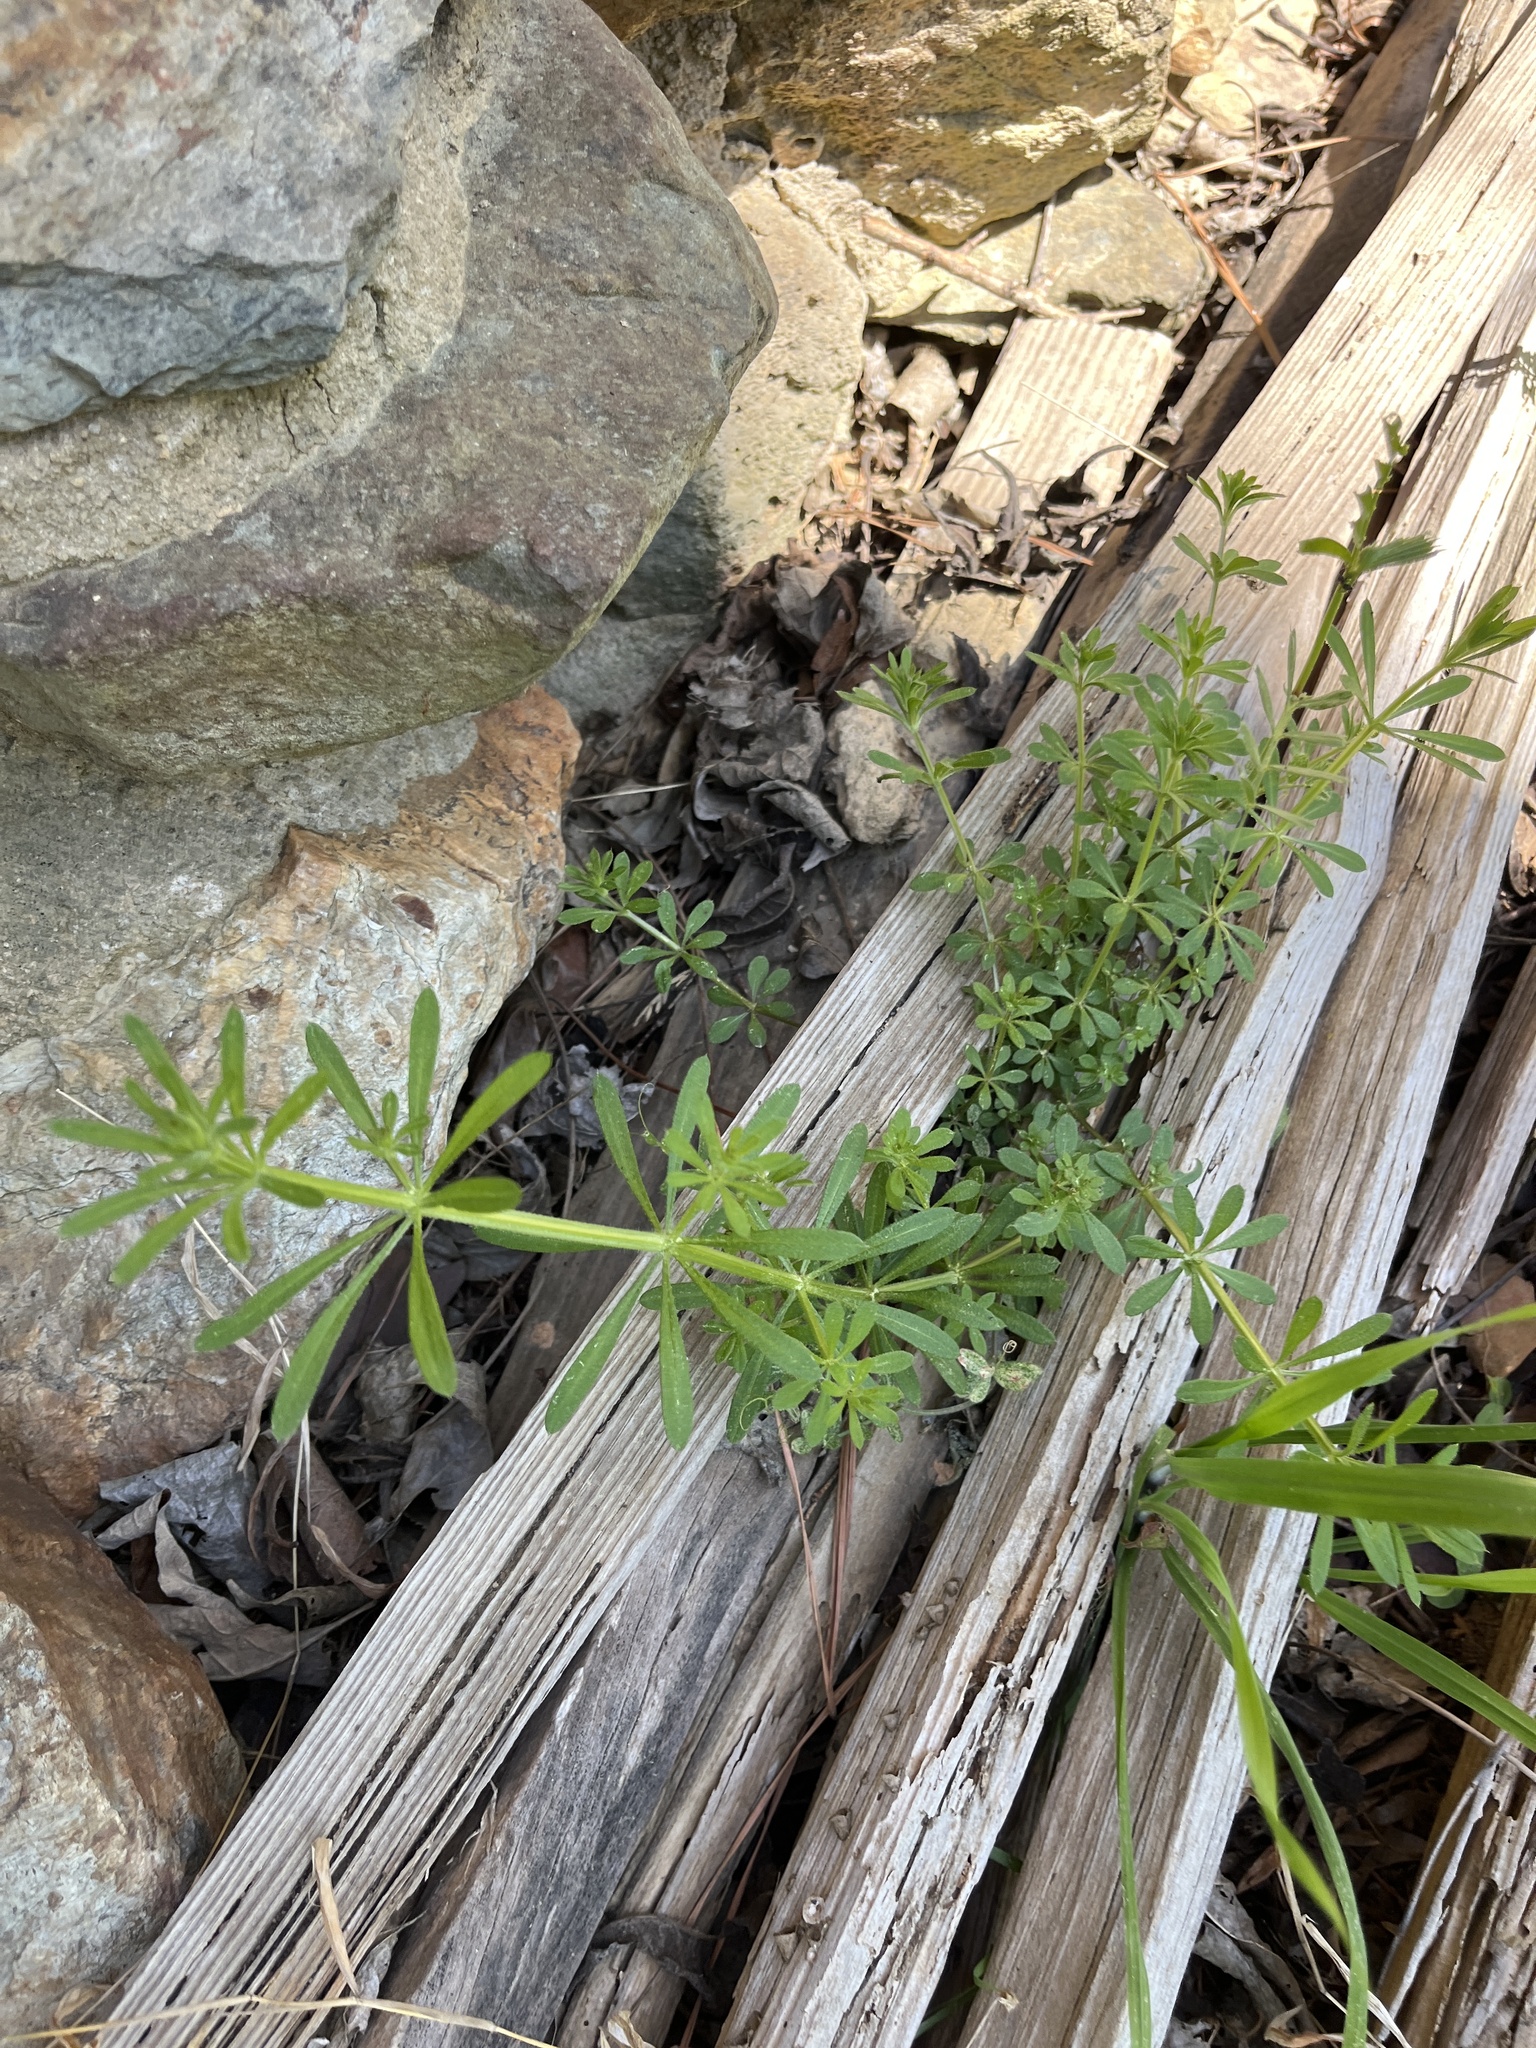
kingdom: Plantae
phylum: Tracheophyta
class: Magnoliopsida
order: Gentianales
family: Rubiaceae
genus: Galium
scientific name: Galium aparine
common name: Cleavers
